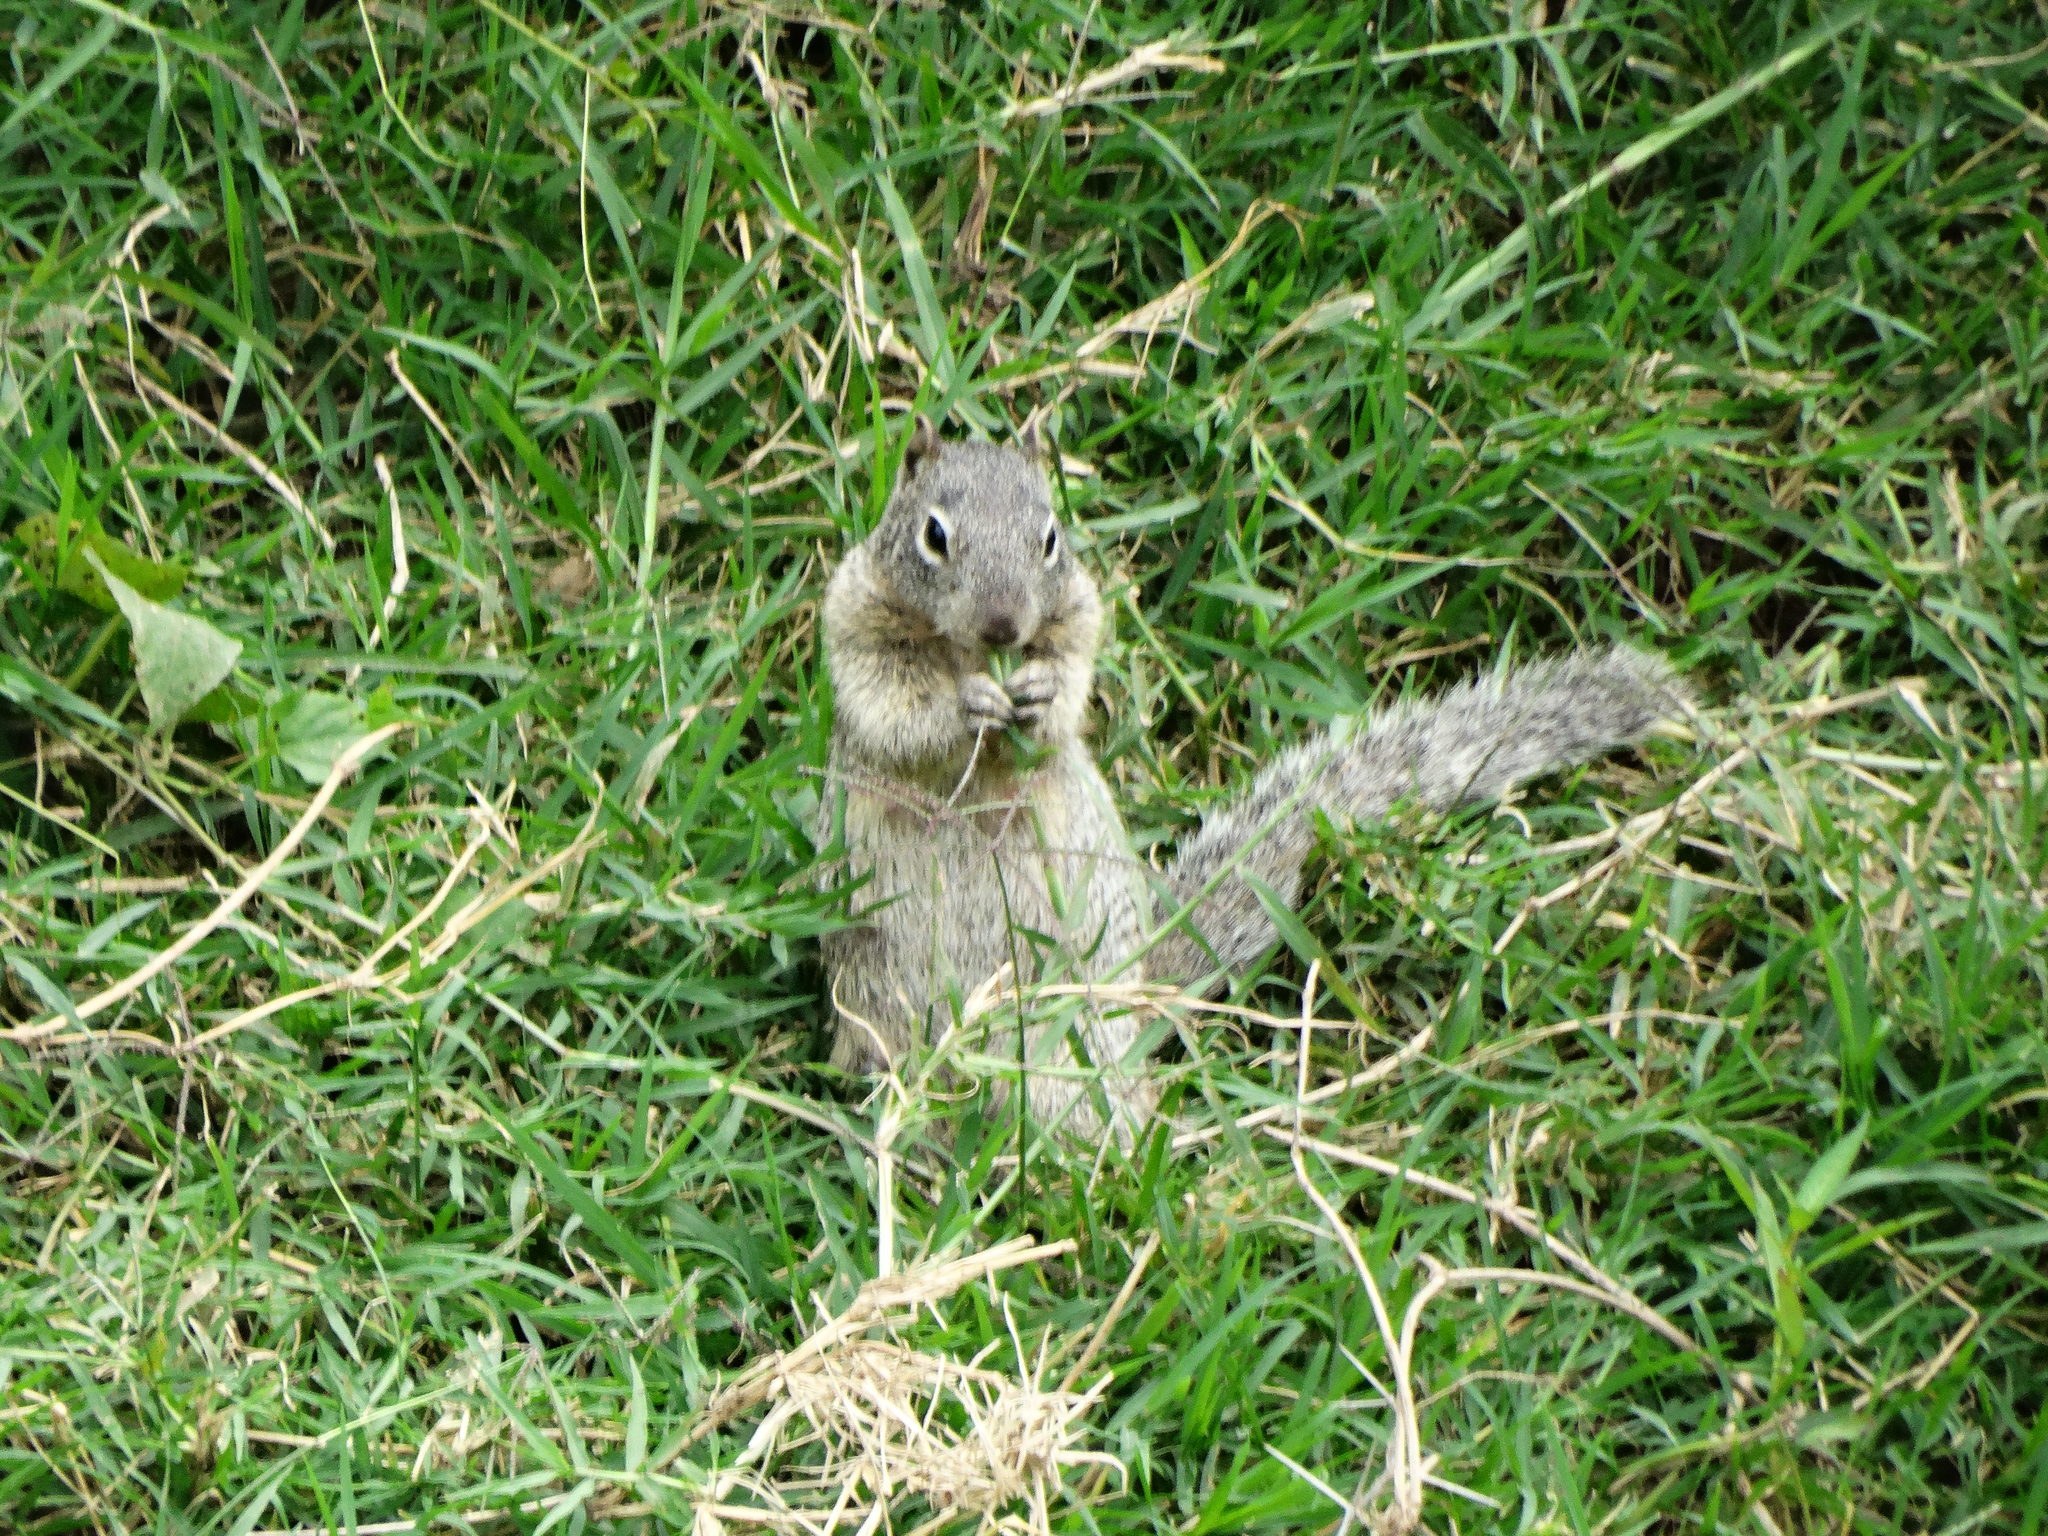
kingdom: Animalia
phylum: Chordata
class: Mammalia
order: Rodentia
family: Sciuridae
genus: Otospermophilus
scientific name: Otospermophilus variegatus
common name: Rock squirrel
